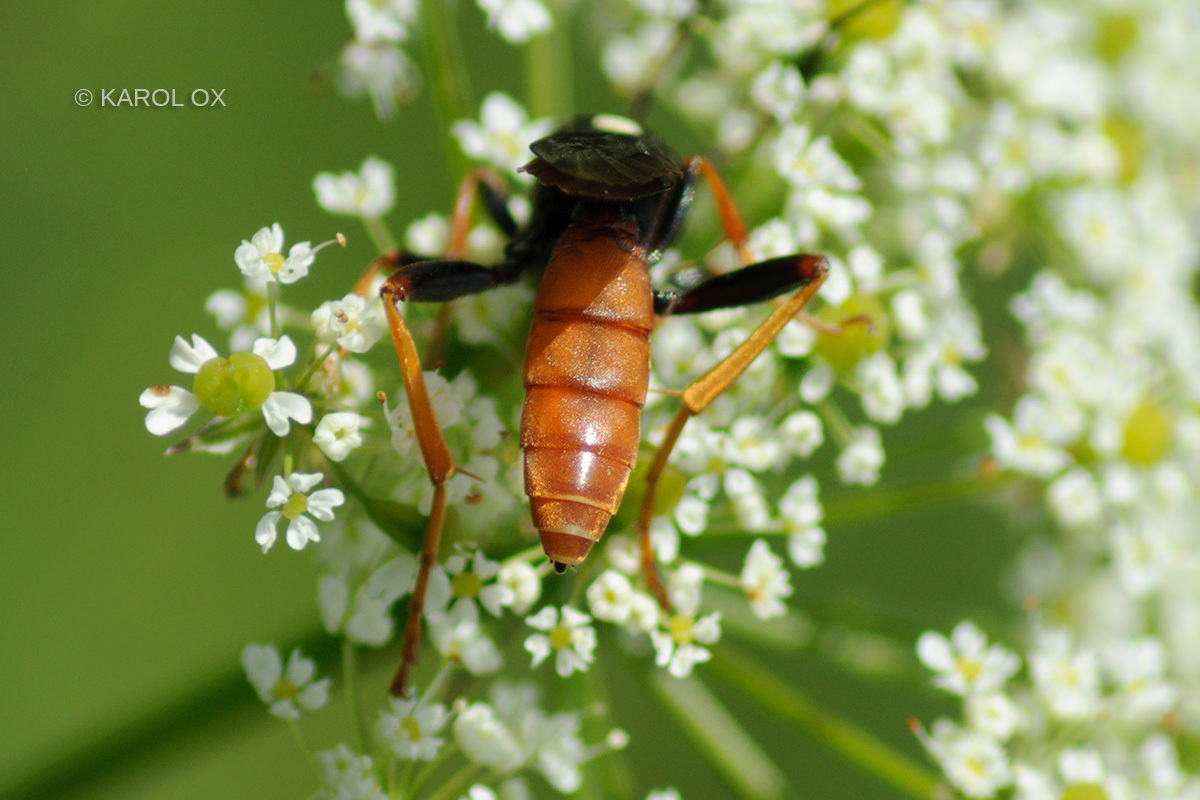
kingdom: Animalia
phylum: Arthropoda
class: Insecta
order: Hymenoptera
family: Ichneumonidae
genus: Amblyjoppa
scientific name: Amblyjoppa fuscipennis
